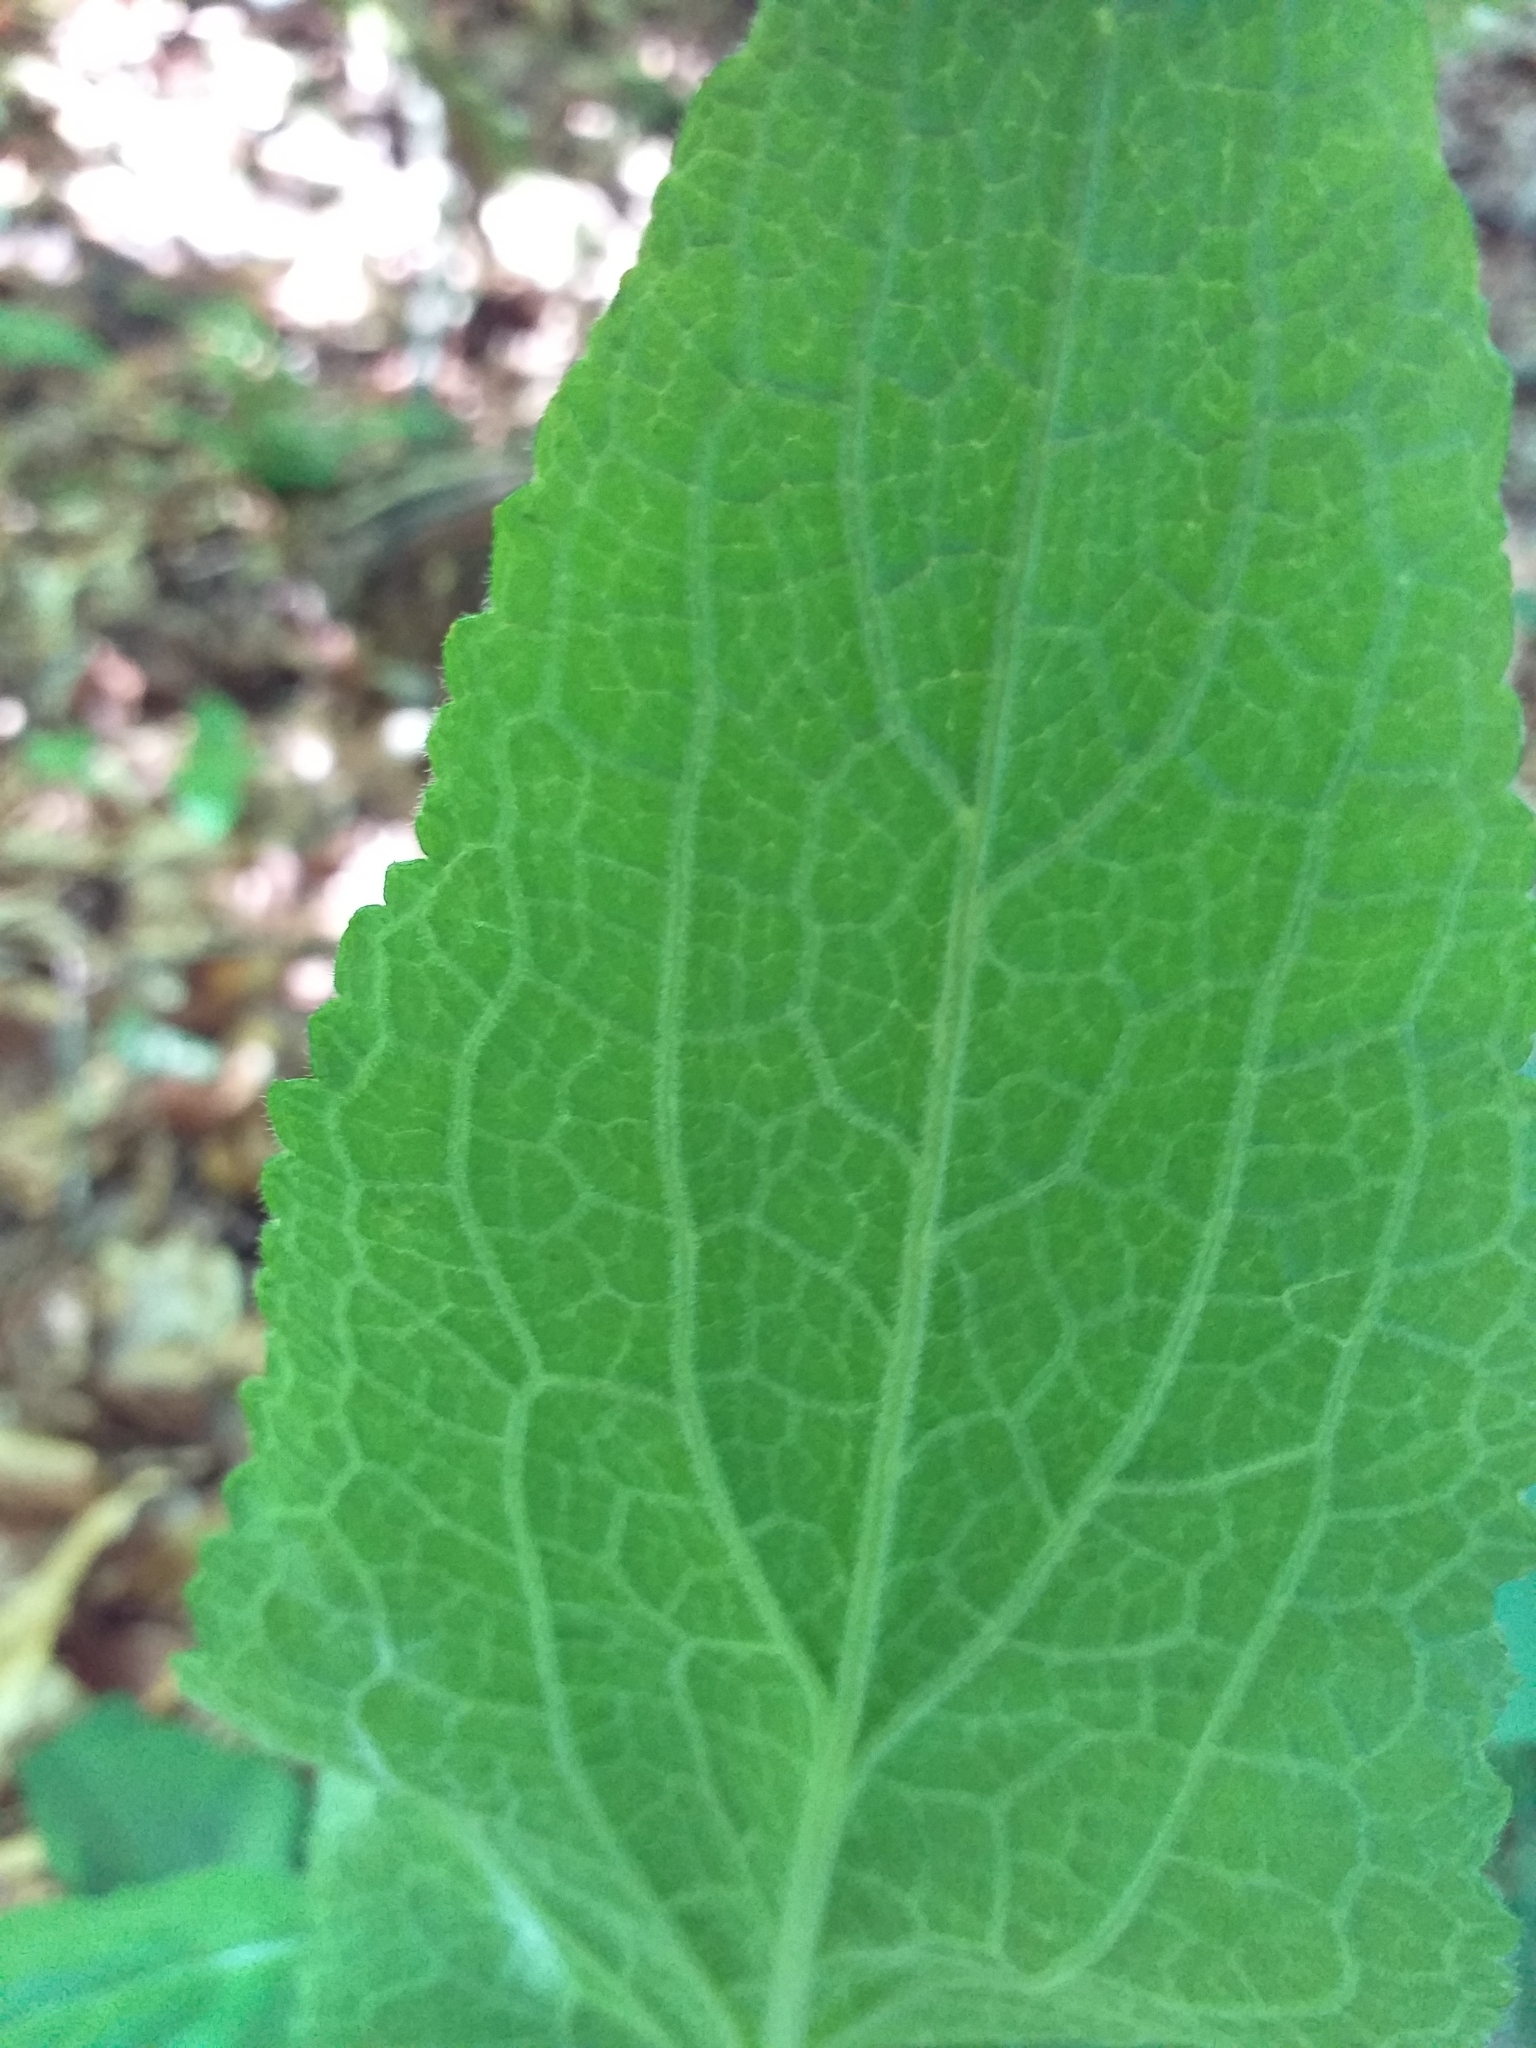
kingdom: Plantae
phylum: Tracheophyta
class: Magnoliopsida
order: Lamiales
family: Plantaginaceae
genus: Digitalis
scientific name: Digitalis purpurea
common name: Foxglove
